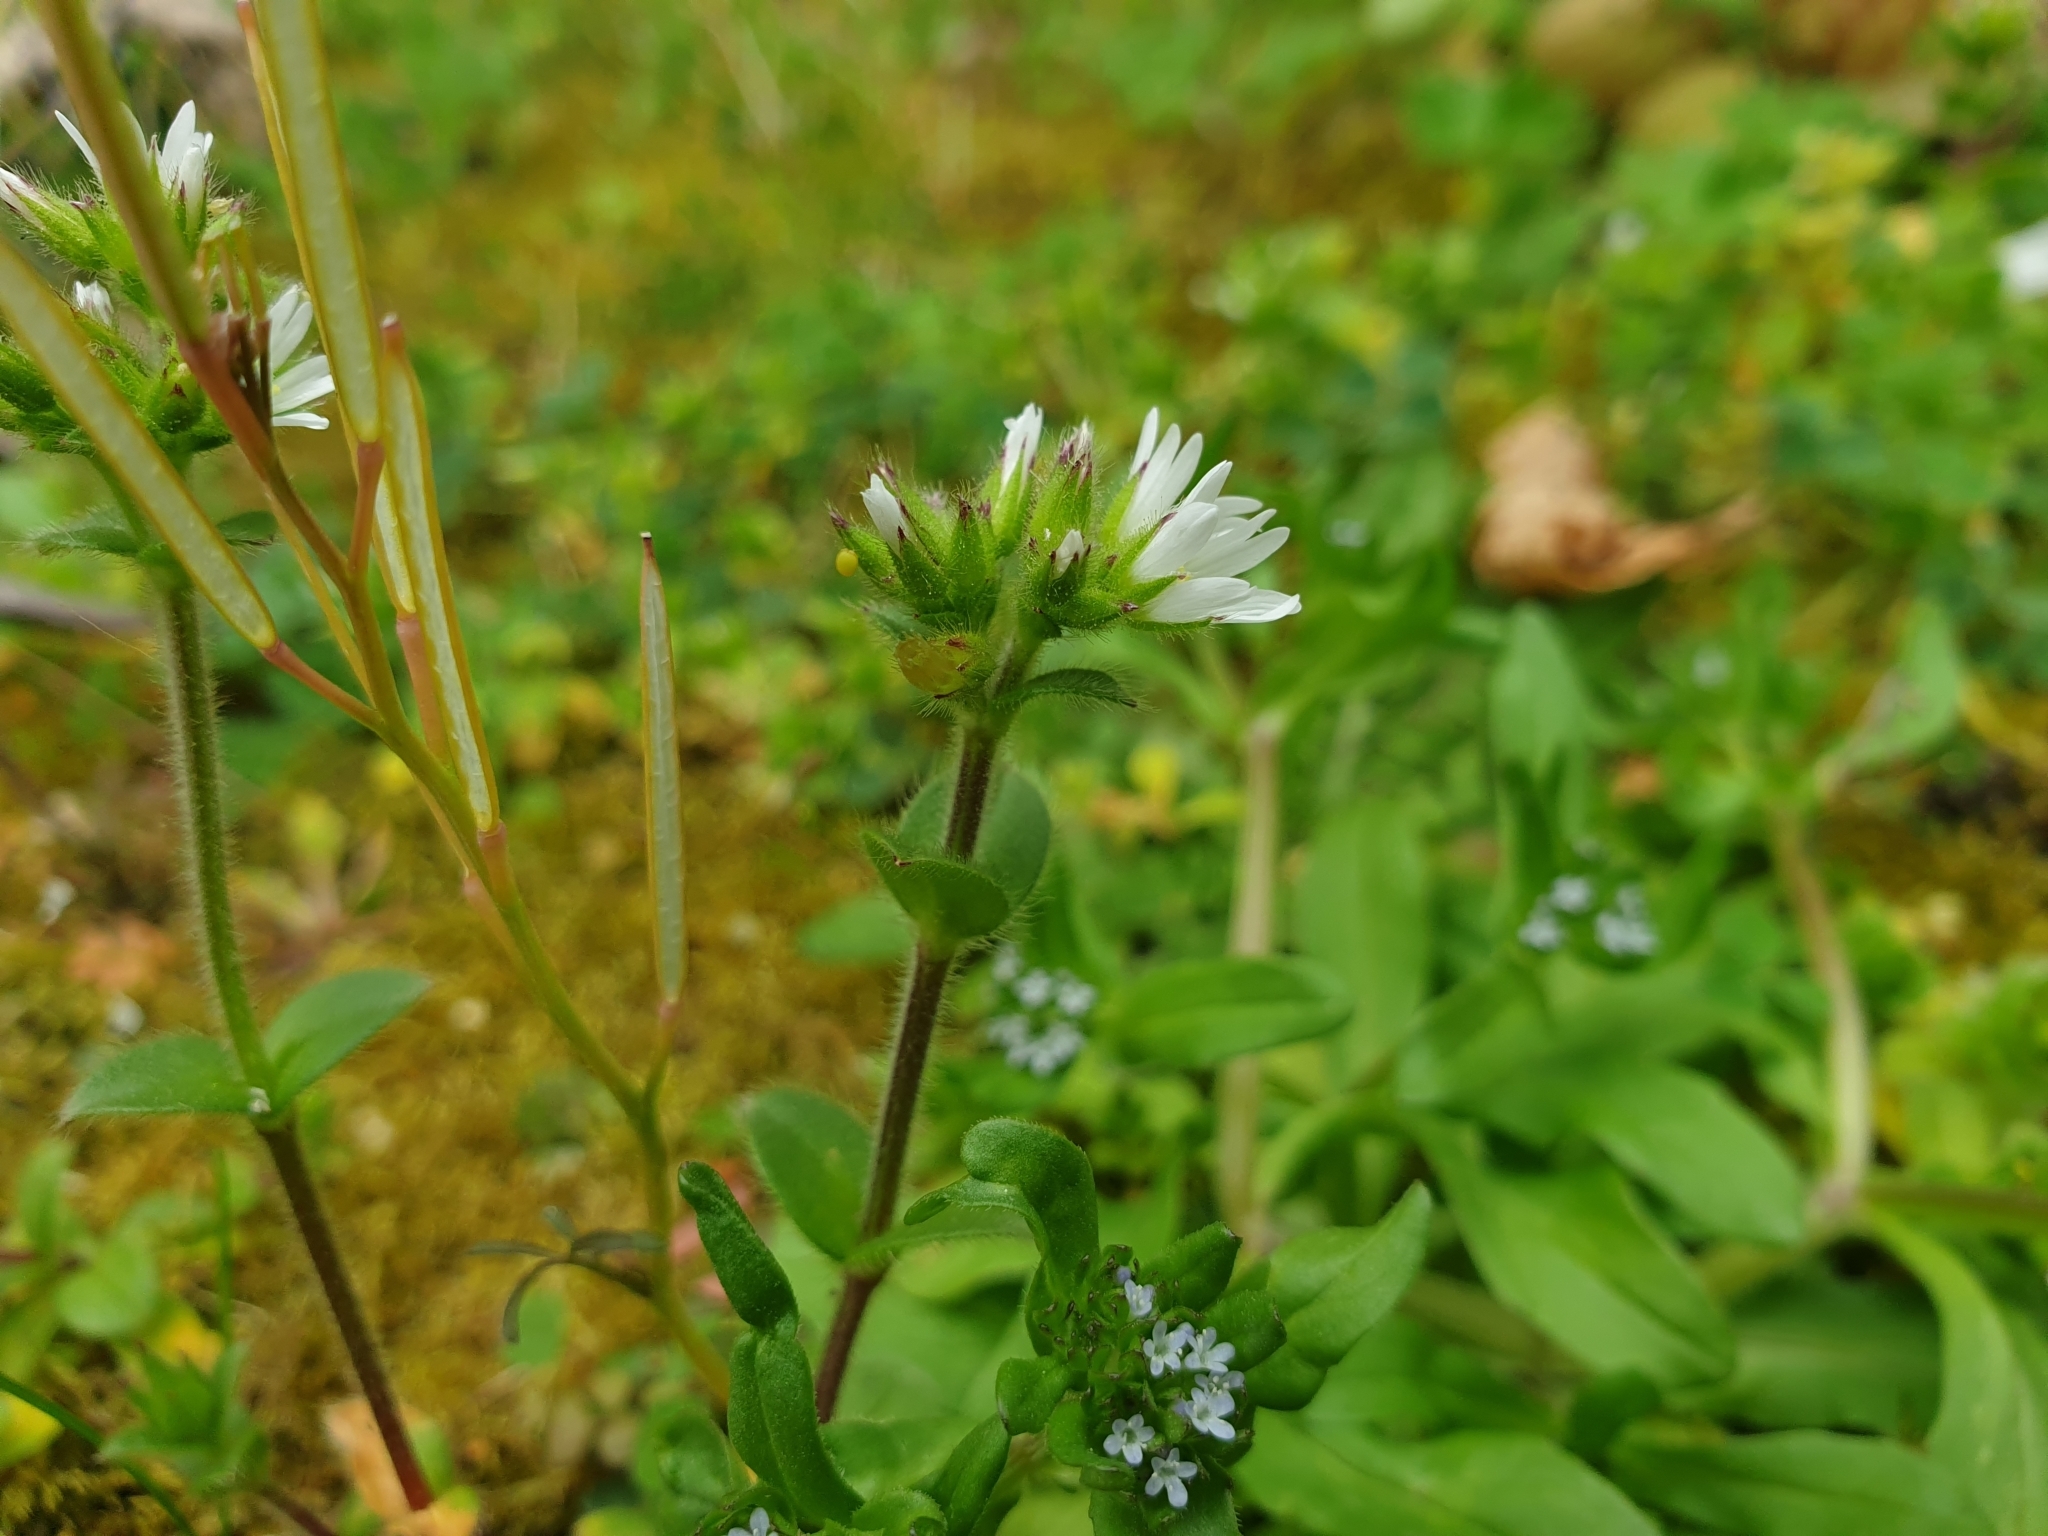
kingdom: Plantae
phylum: Tracheophyta
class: Magnoliopsida
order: Caryophyllales
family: Caryophyllaceae
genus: Cerastium
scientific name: Cerastium glomeratum
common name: Sticky chickweed
